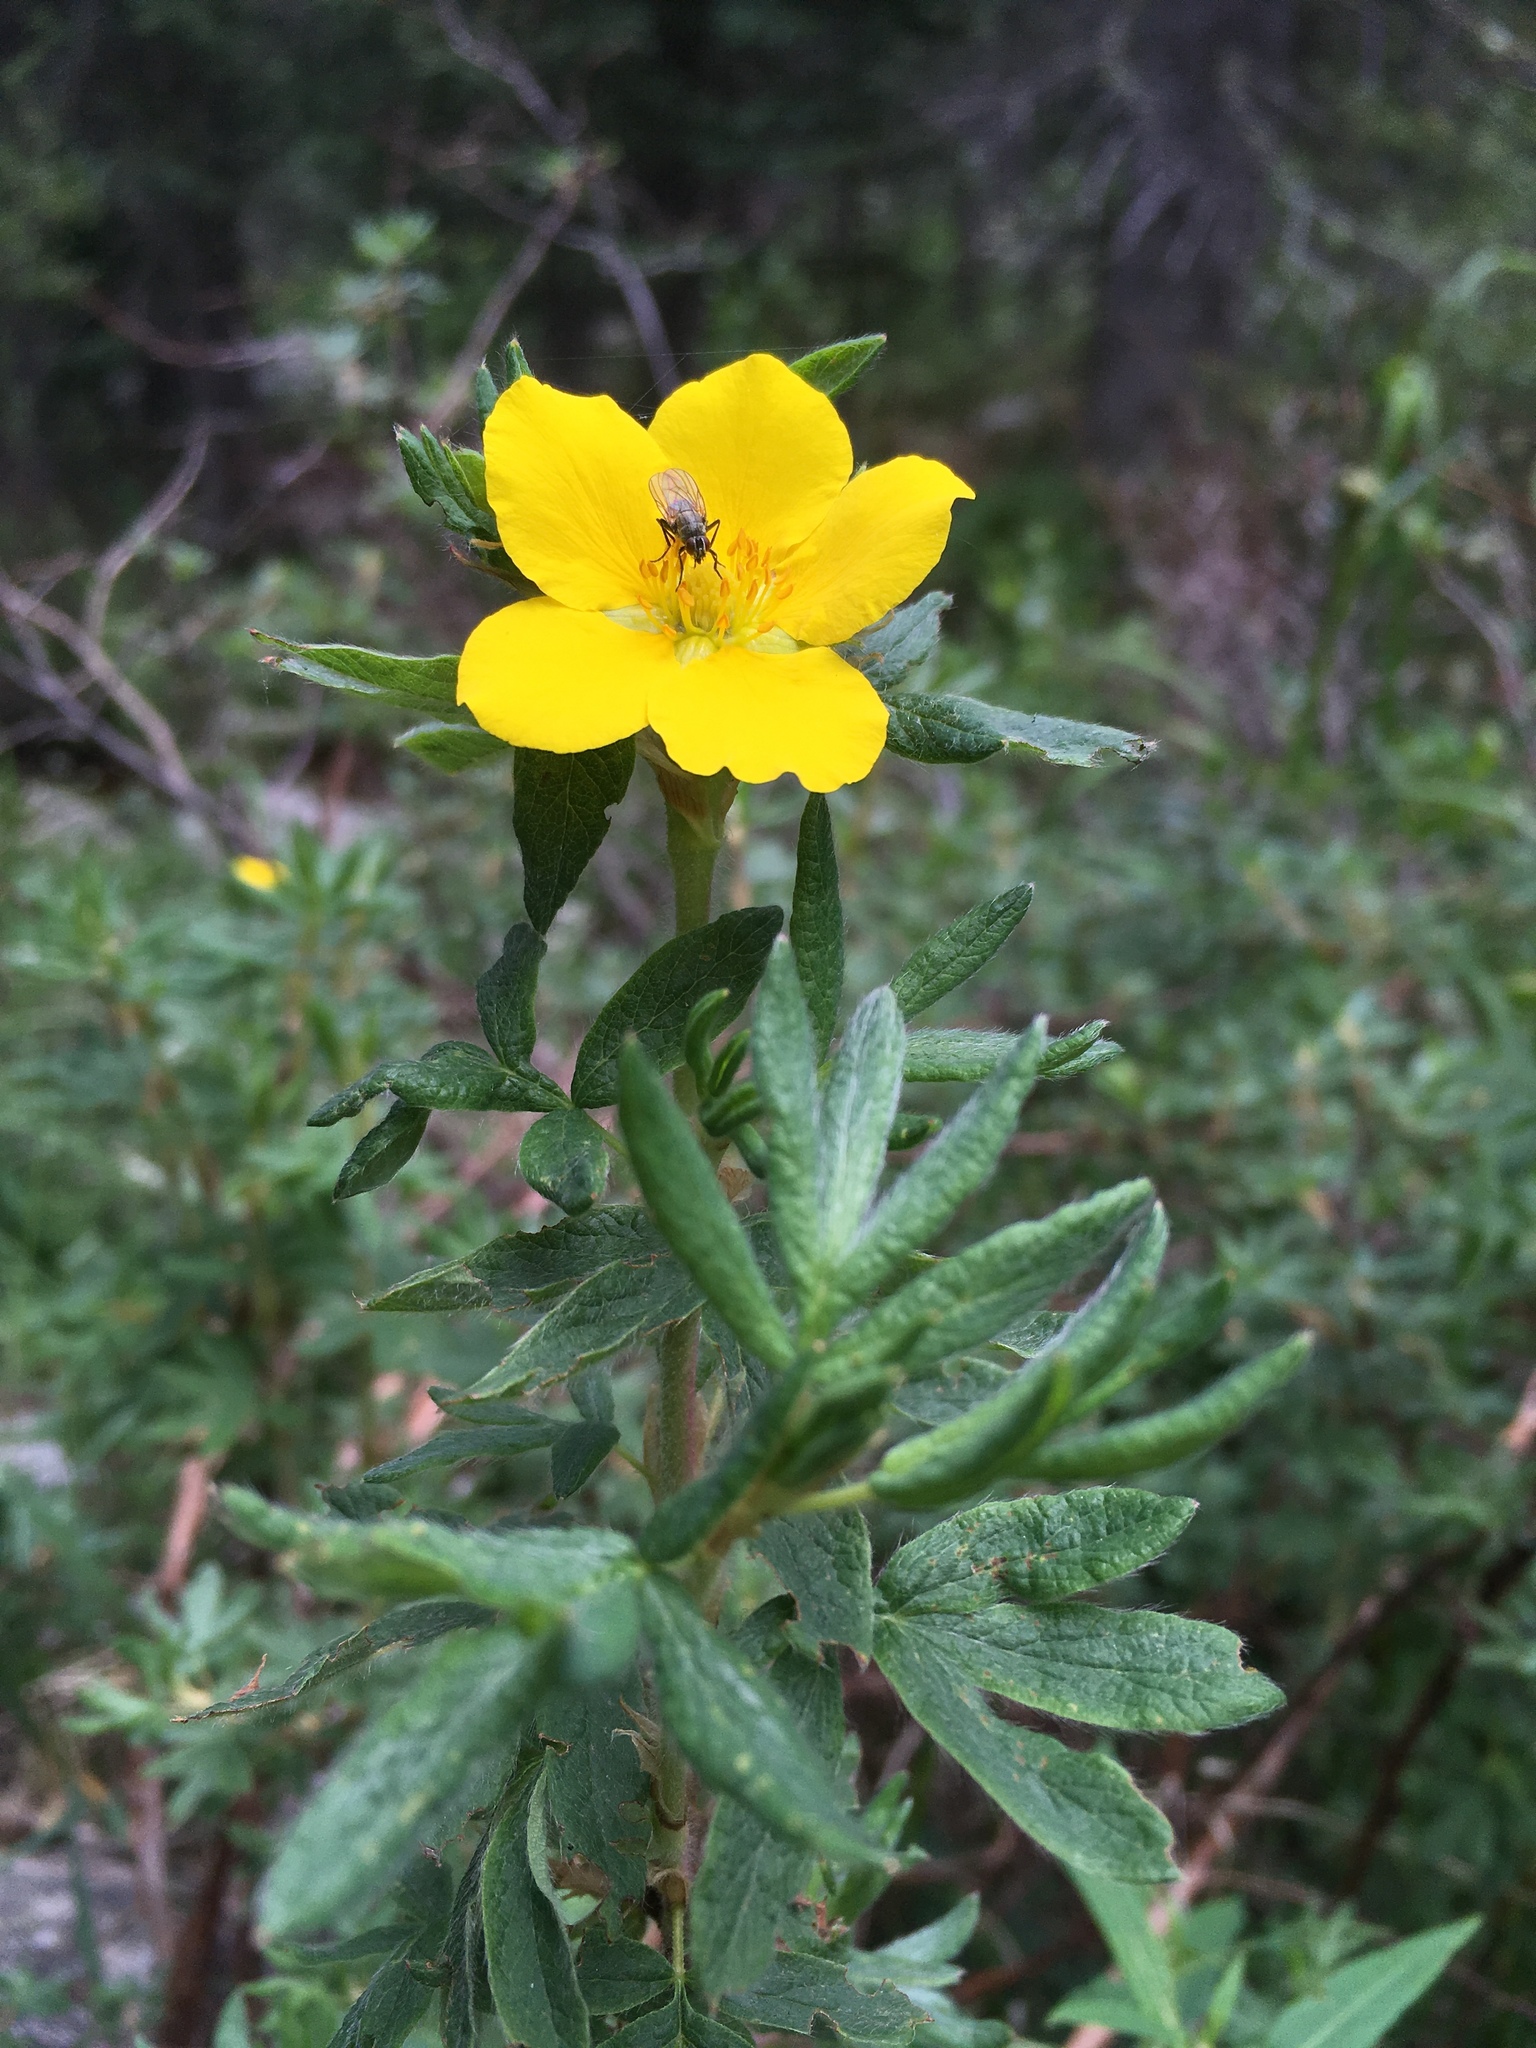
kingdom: Plantae
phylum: Tracheophyta
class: Magnoliopsida
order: Rosales
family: Rosaceae
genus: Dasiphora
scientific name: Dasiphora fruticosa
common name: Shrubby cinquefoil
